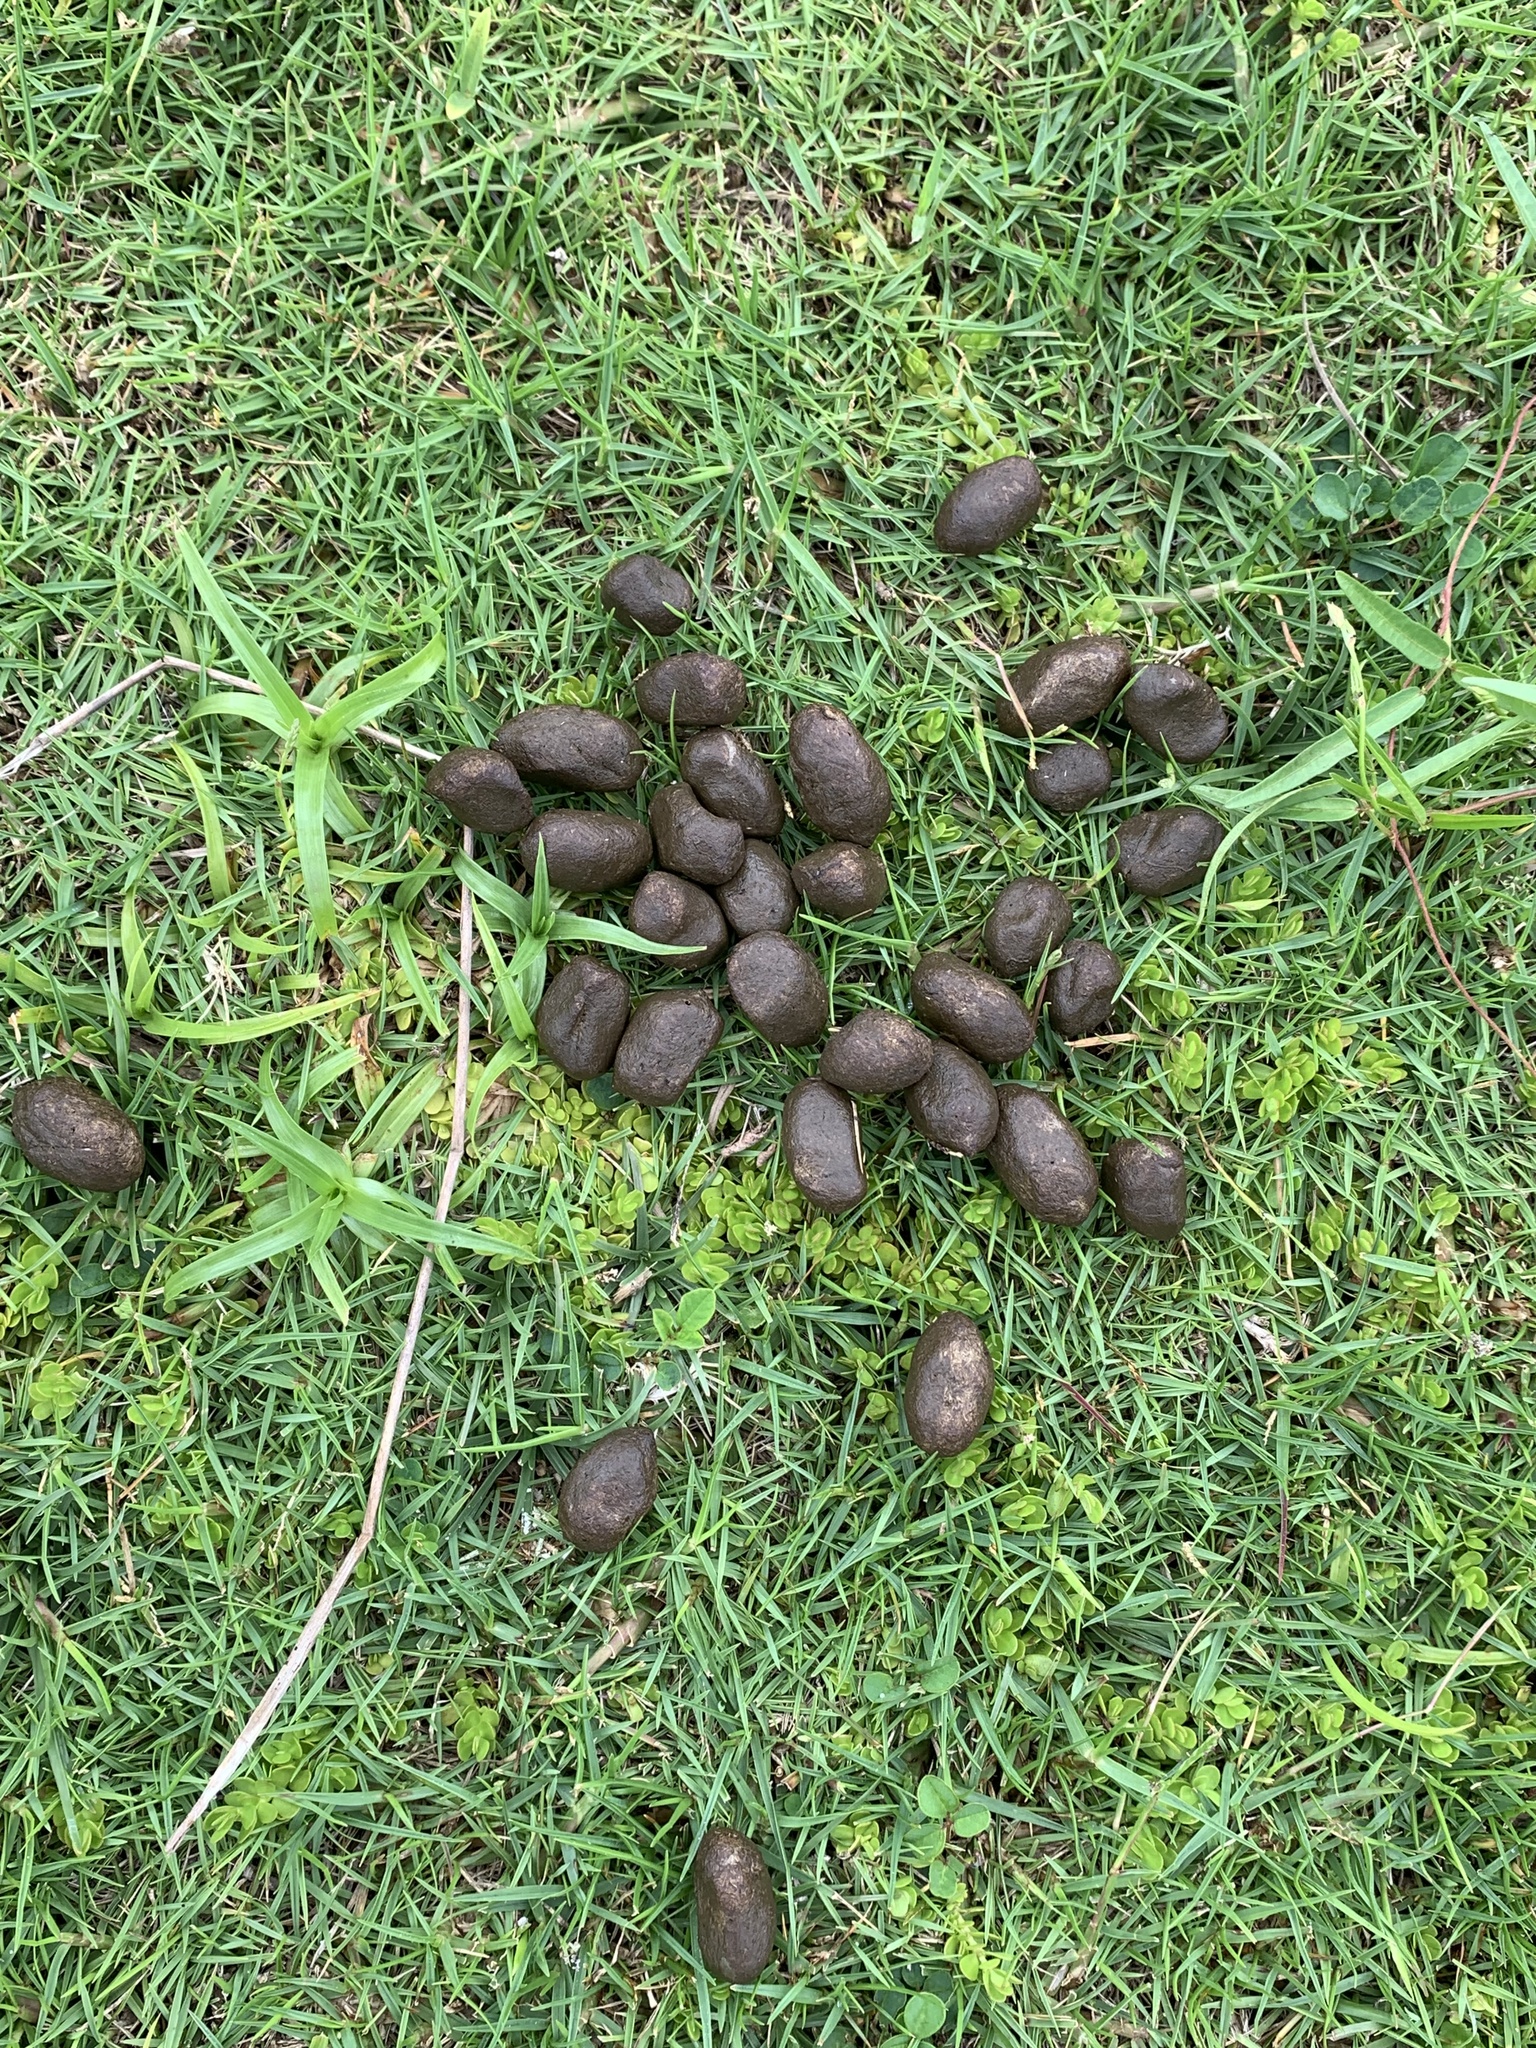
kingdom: Animalia
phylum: Chordata
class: Mammalia
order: Rodentia
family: Caviidae
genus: Hydrochoerus
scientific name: Hydrochoerus hydrochaeris
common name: Capybara
